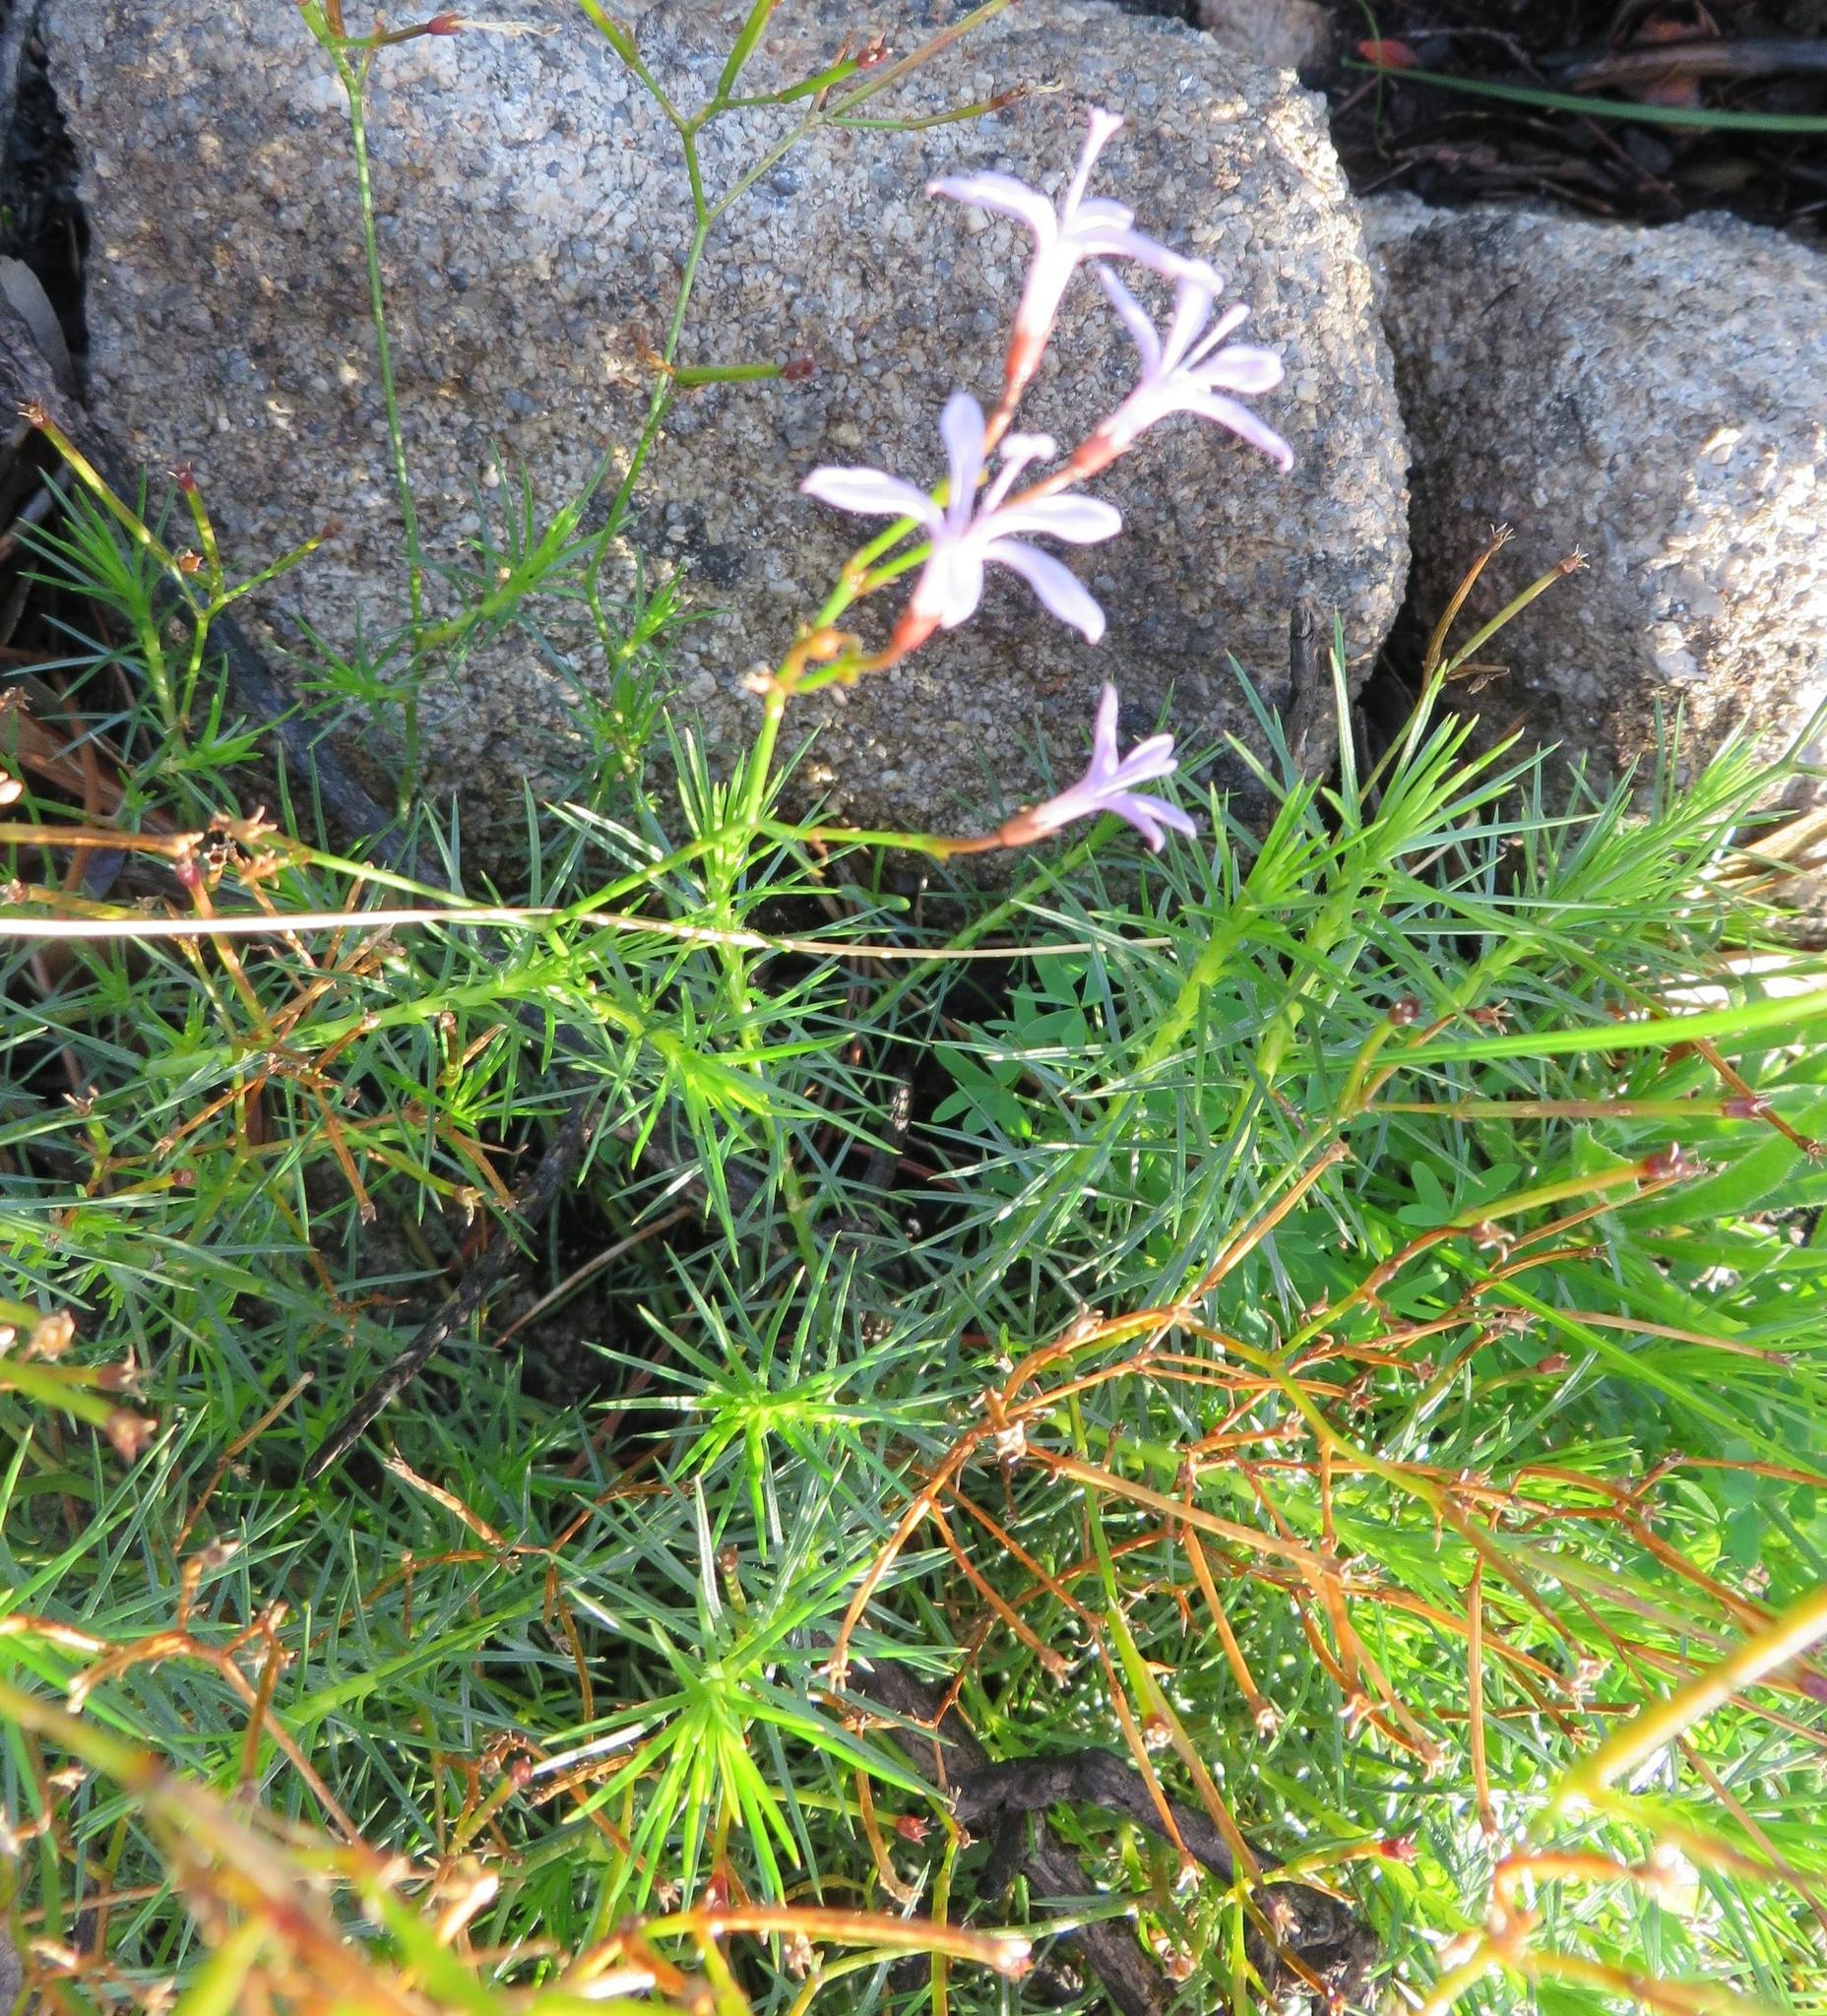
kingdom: Plantae
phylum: Tracheophyta
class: Magnoliopsida
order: Asterales
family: Campanulaceae
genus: Prismatocarpus
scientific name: Prismatocarpus diffusus
